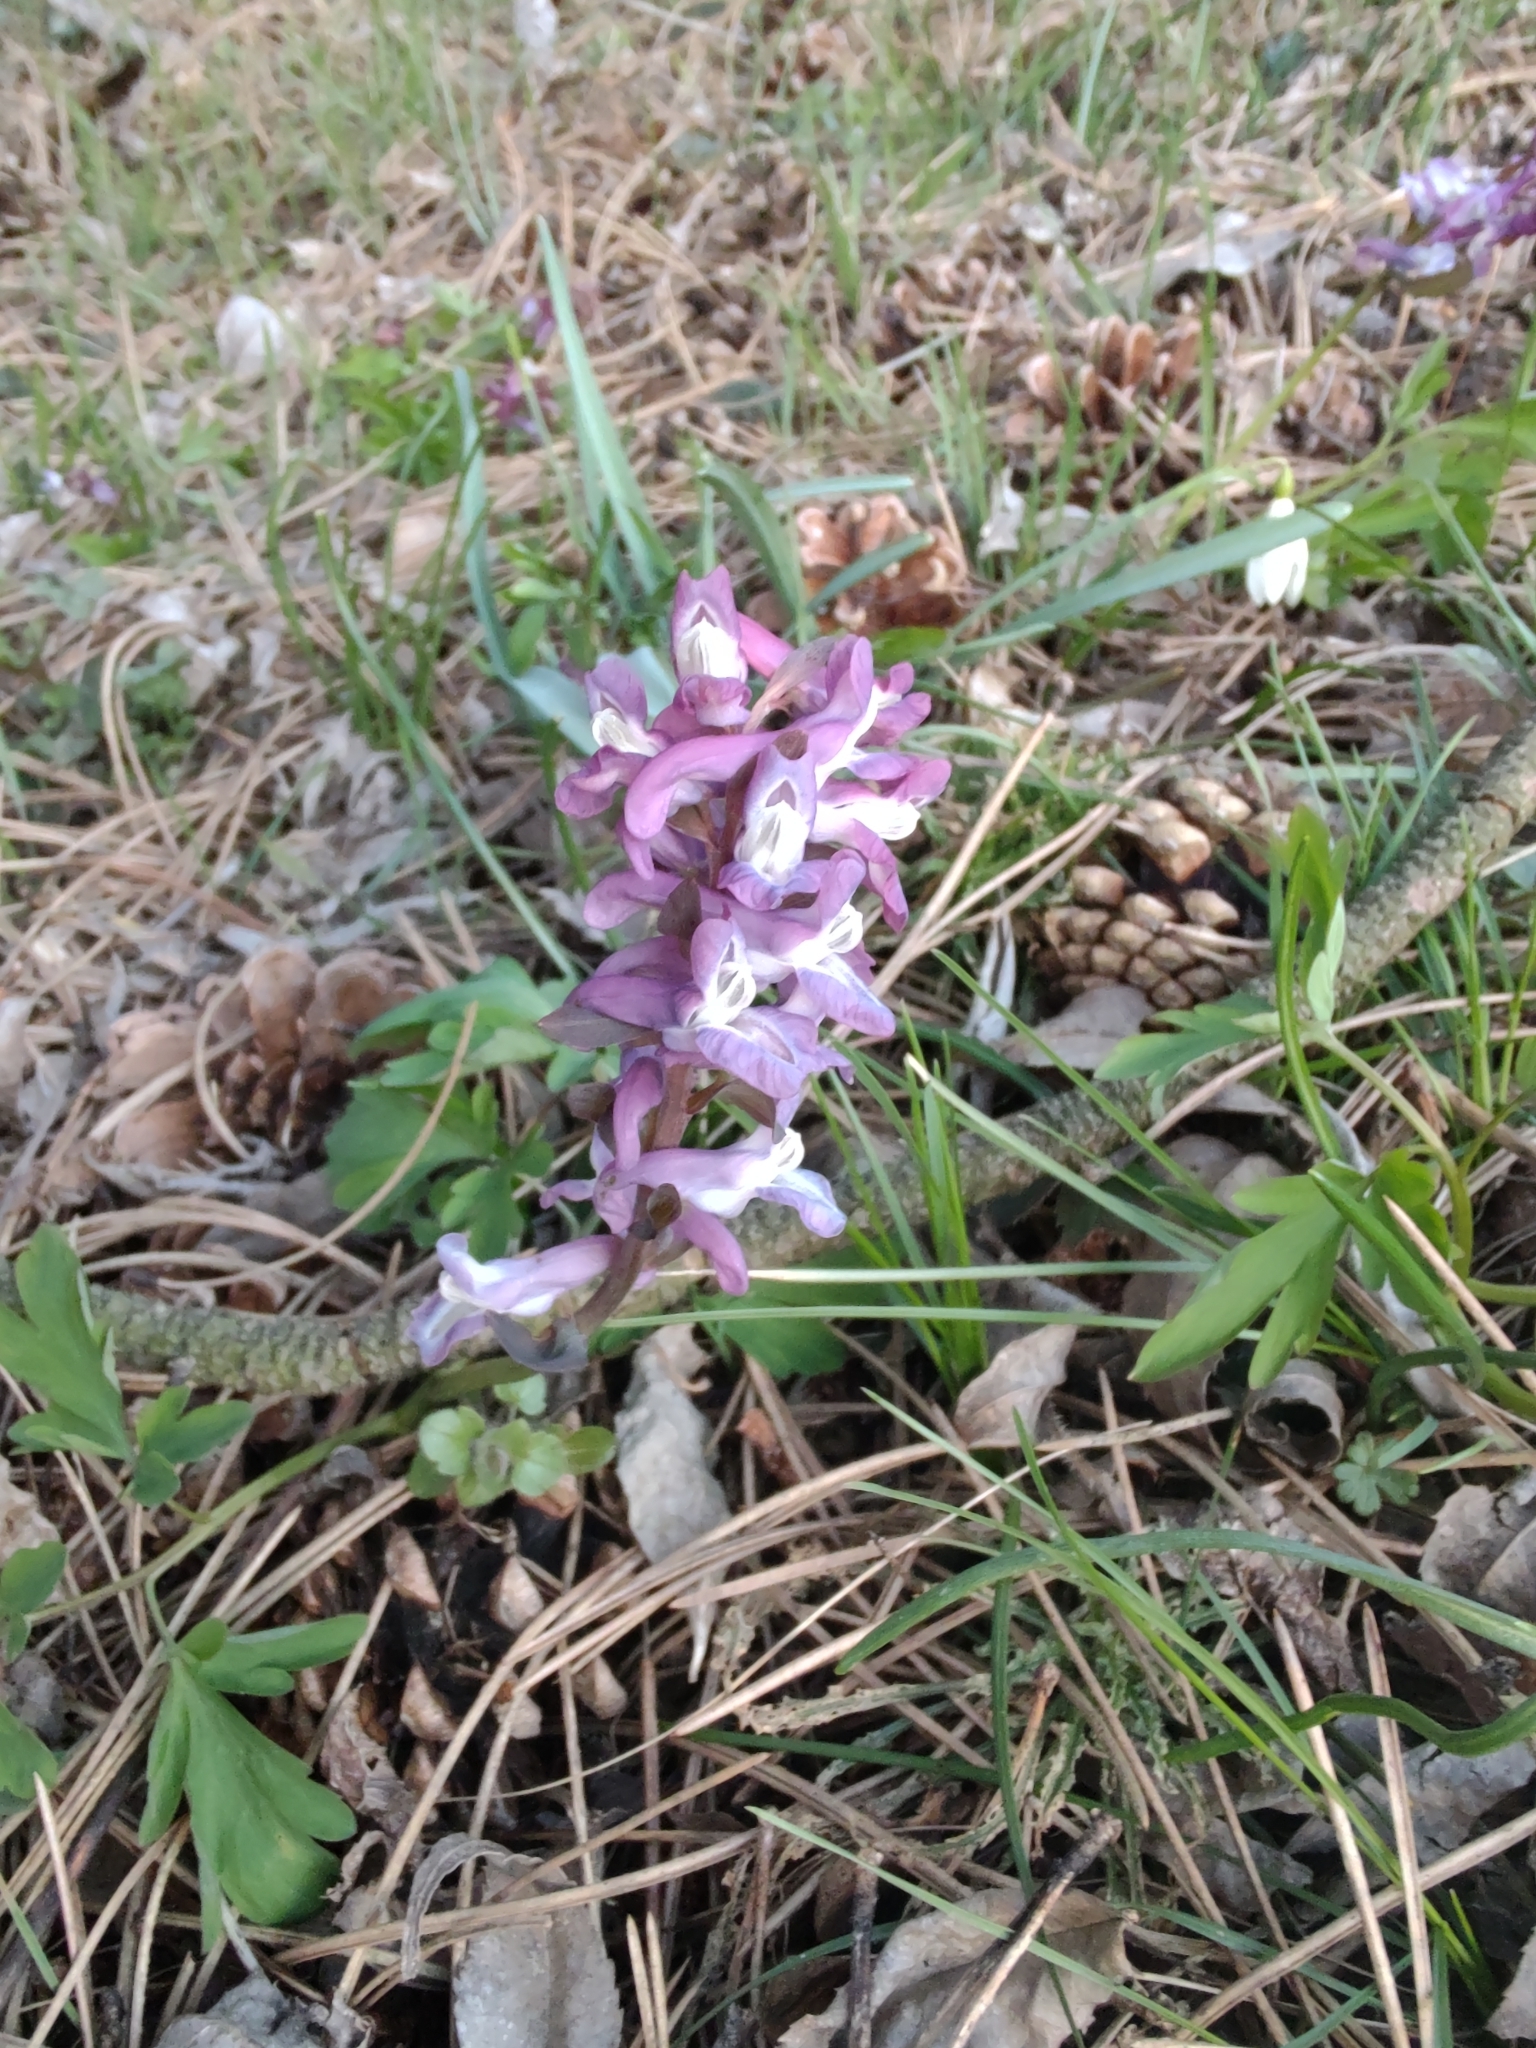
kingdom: Plantae
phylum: Tracheophyta
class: Magnoliopsida
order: Ranunculales
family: Papaveraceae
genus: Corydalis
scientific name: Corydalis cava
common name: Hollowroot
